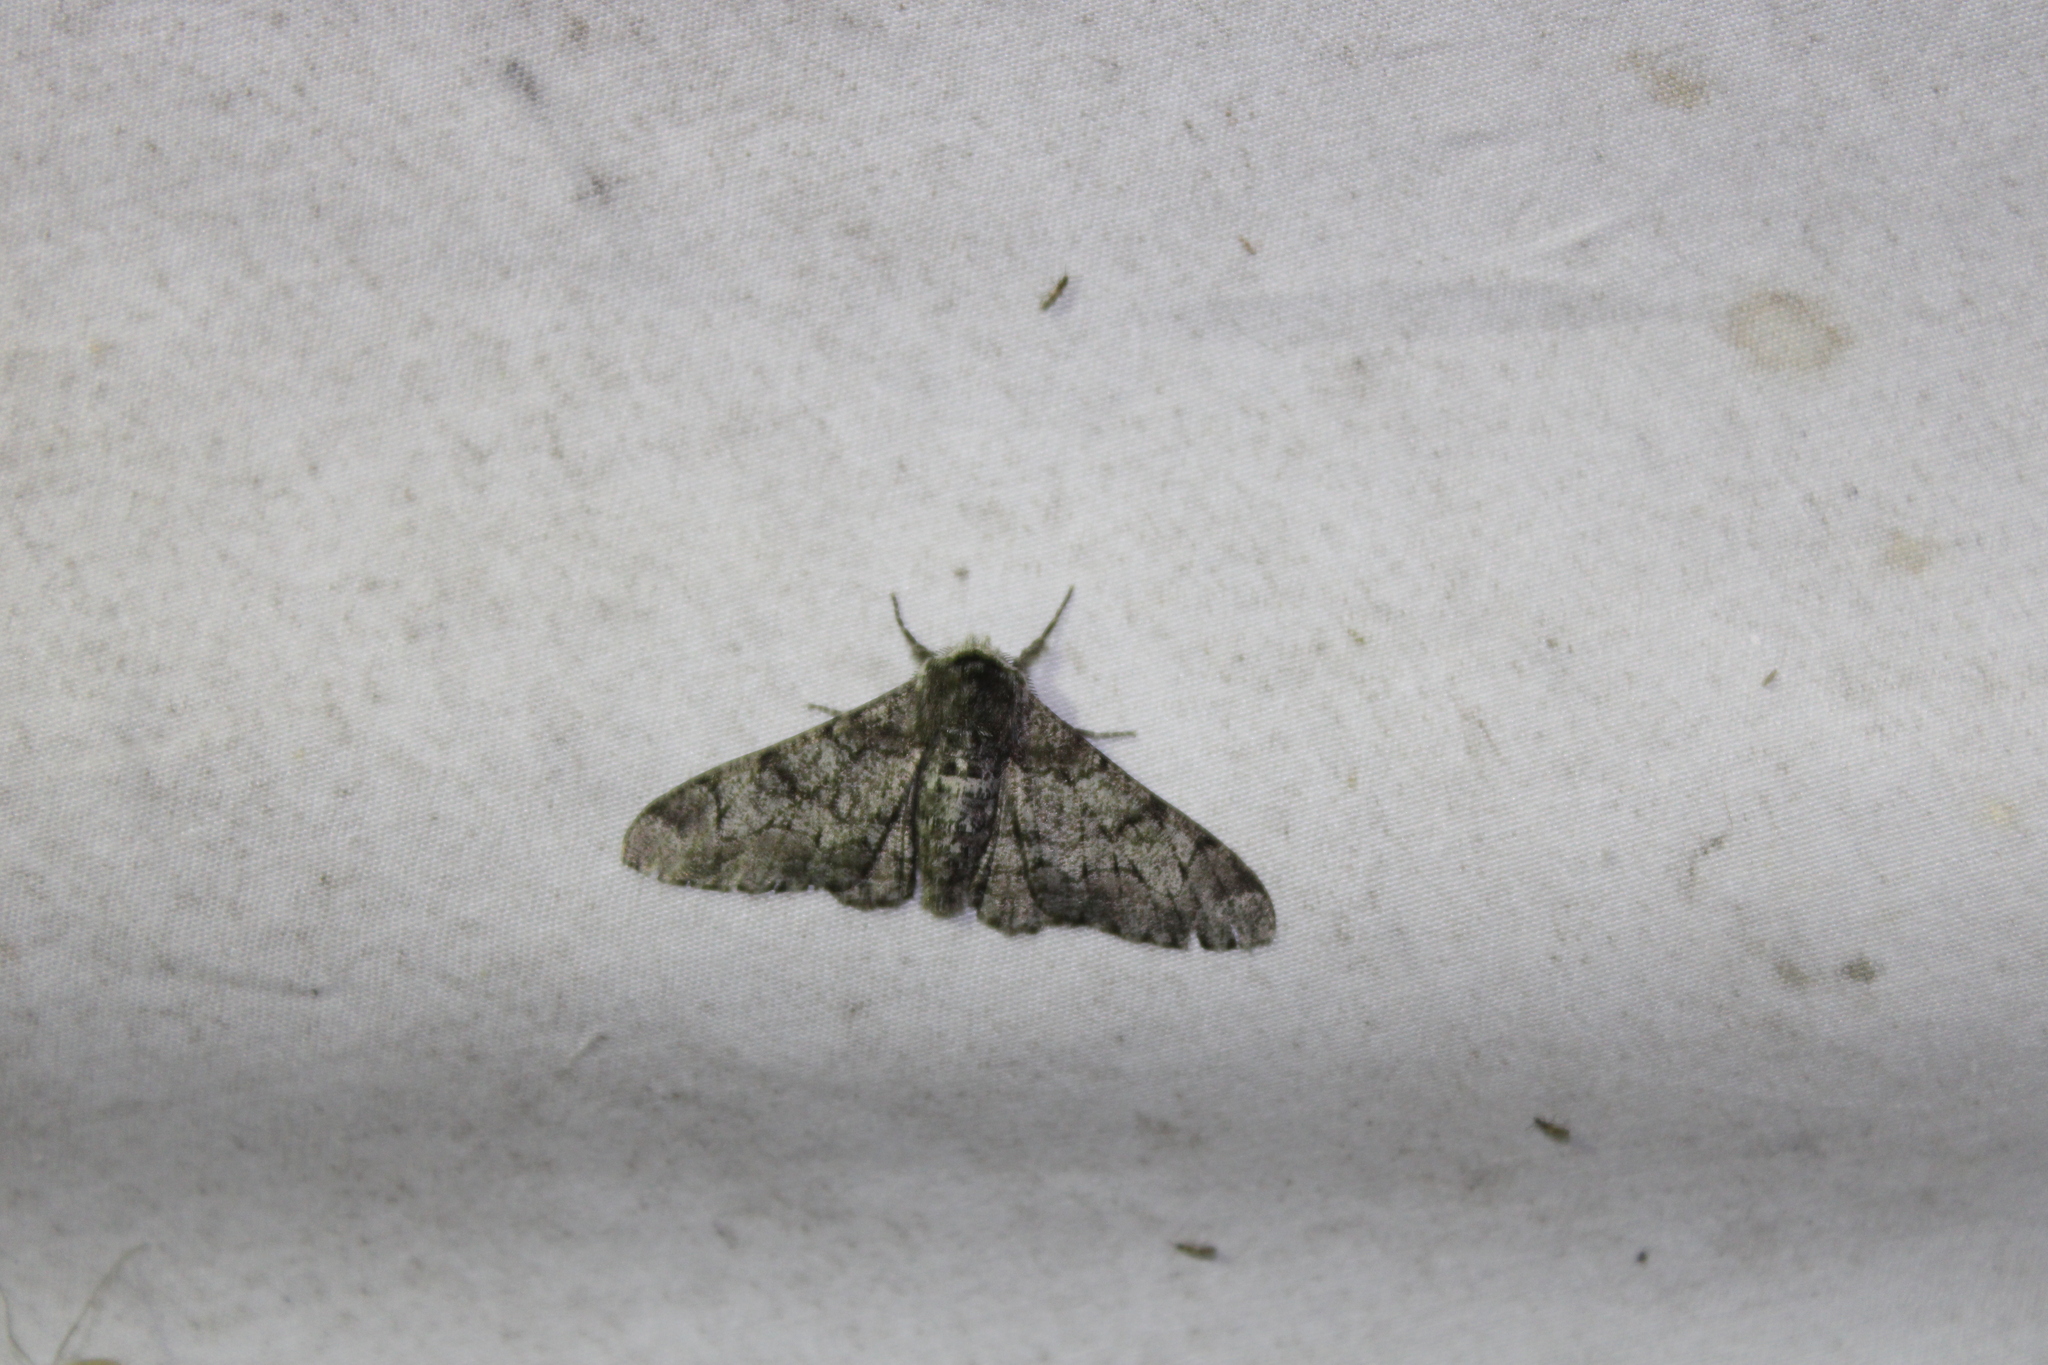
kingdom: Animalia
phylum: Arthropoda
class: Insecta
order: Lepidoptera
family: Geometridae
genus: Biston
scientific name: Biston betularia
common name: Peppered moth
